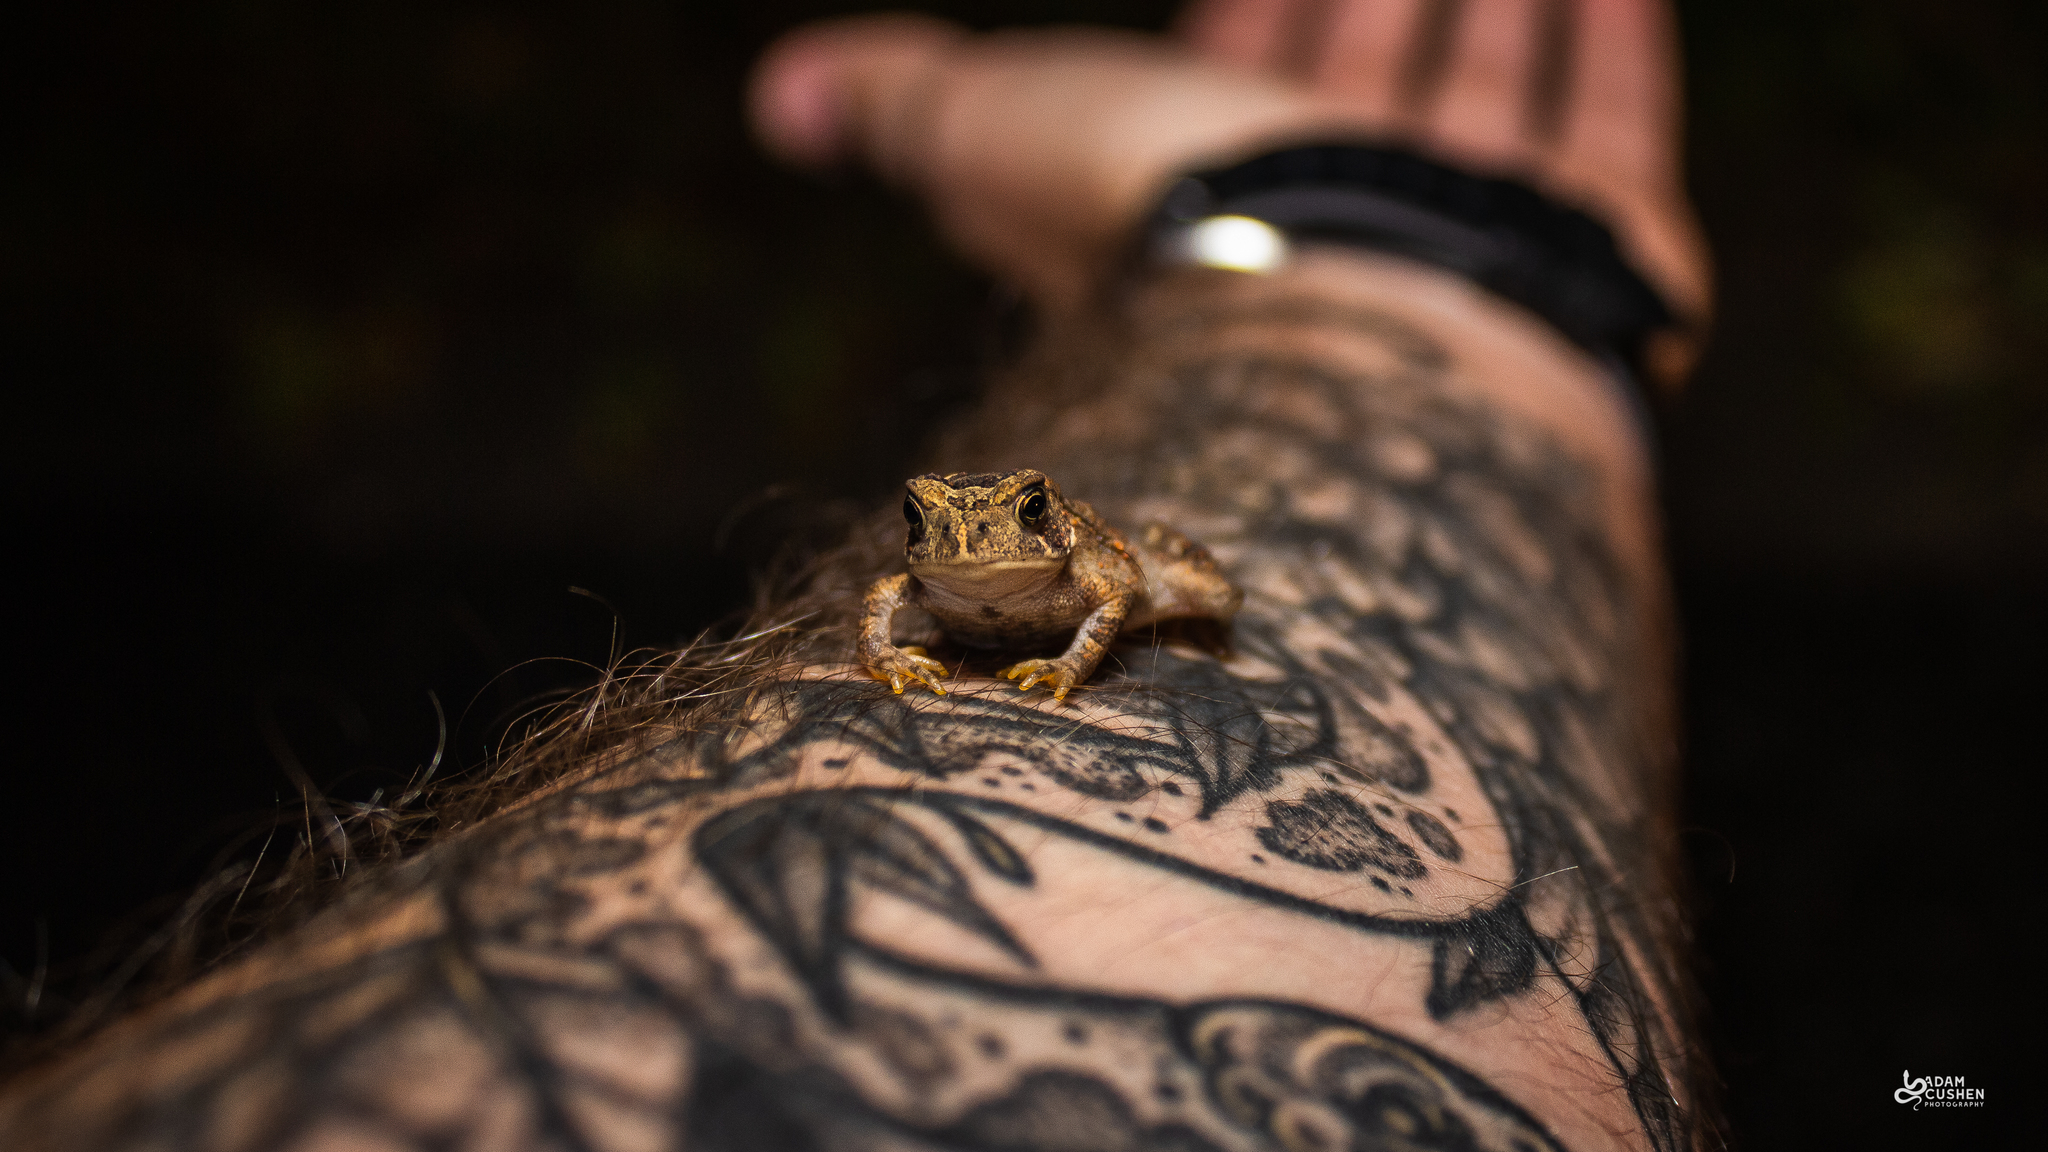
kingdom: Animalia
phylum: Chordata
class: Amphibia
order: Anura
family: Bufonidae
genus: Anaxyrus
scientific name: Anaxyrus americanus
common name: American toad
